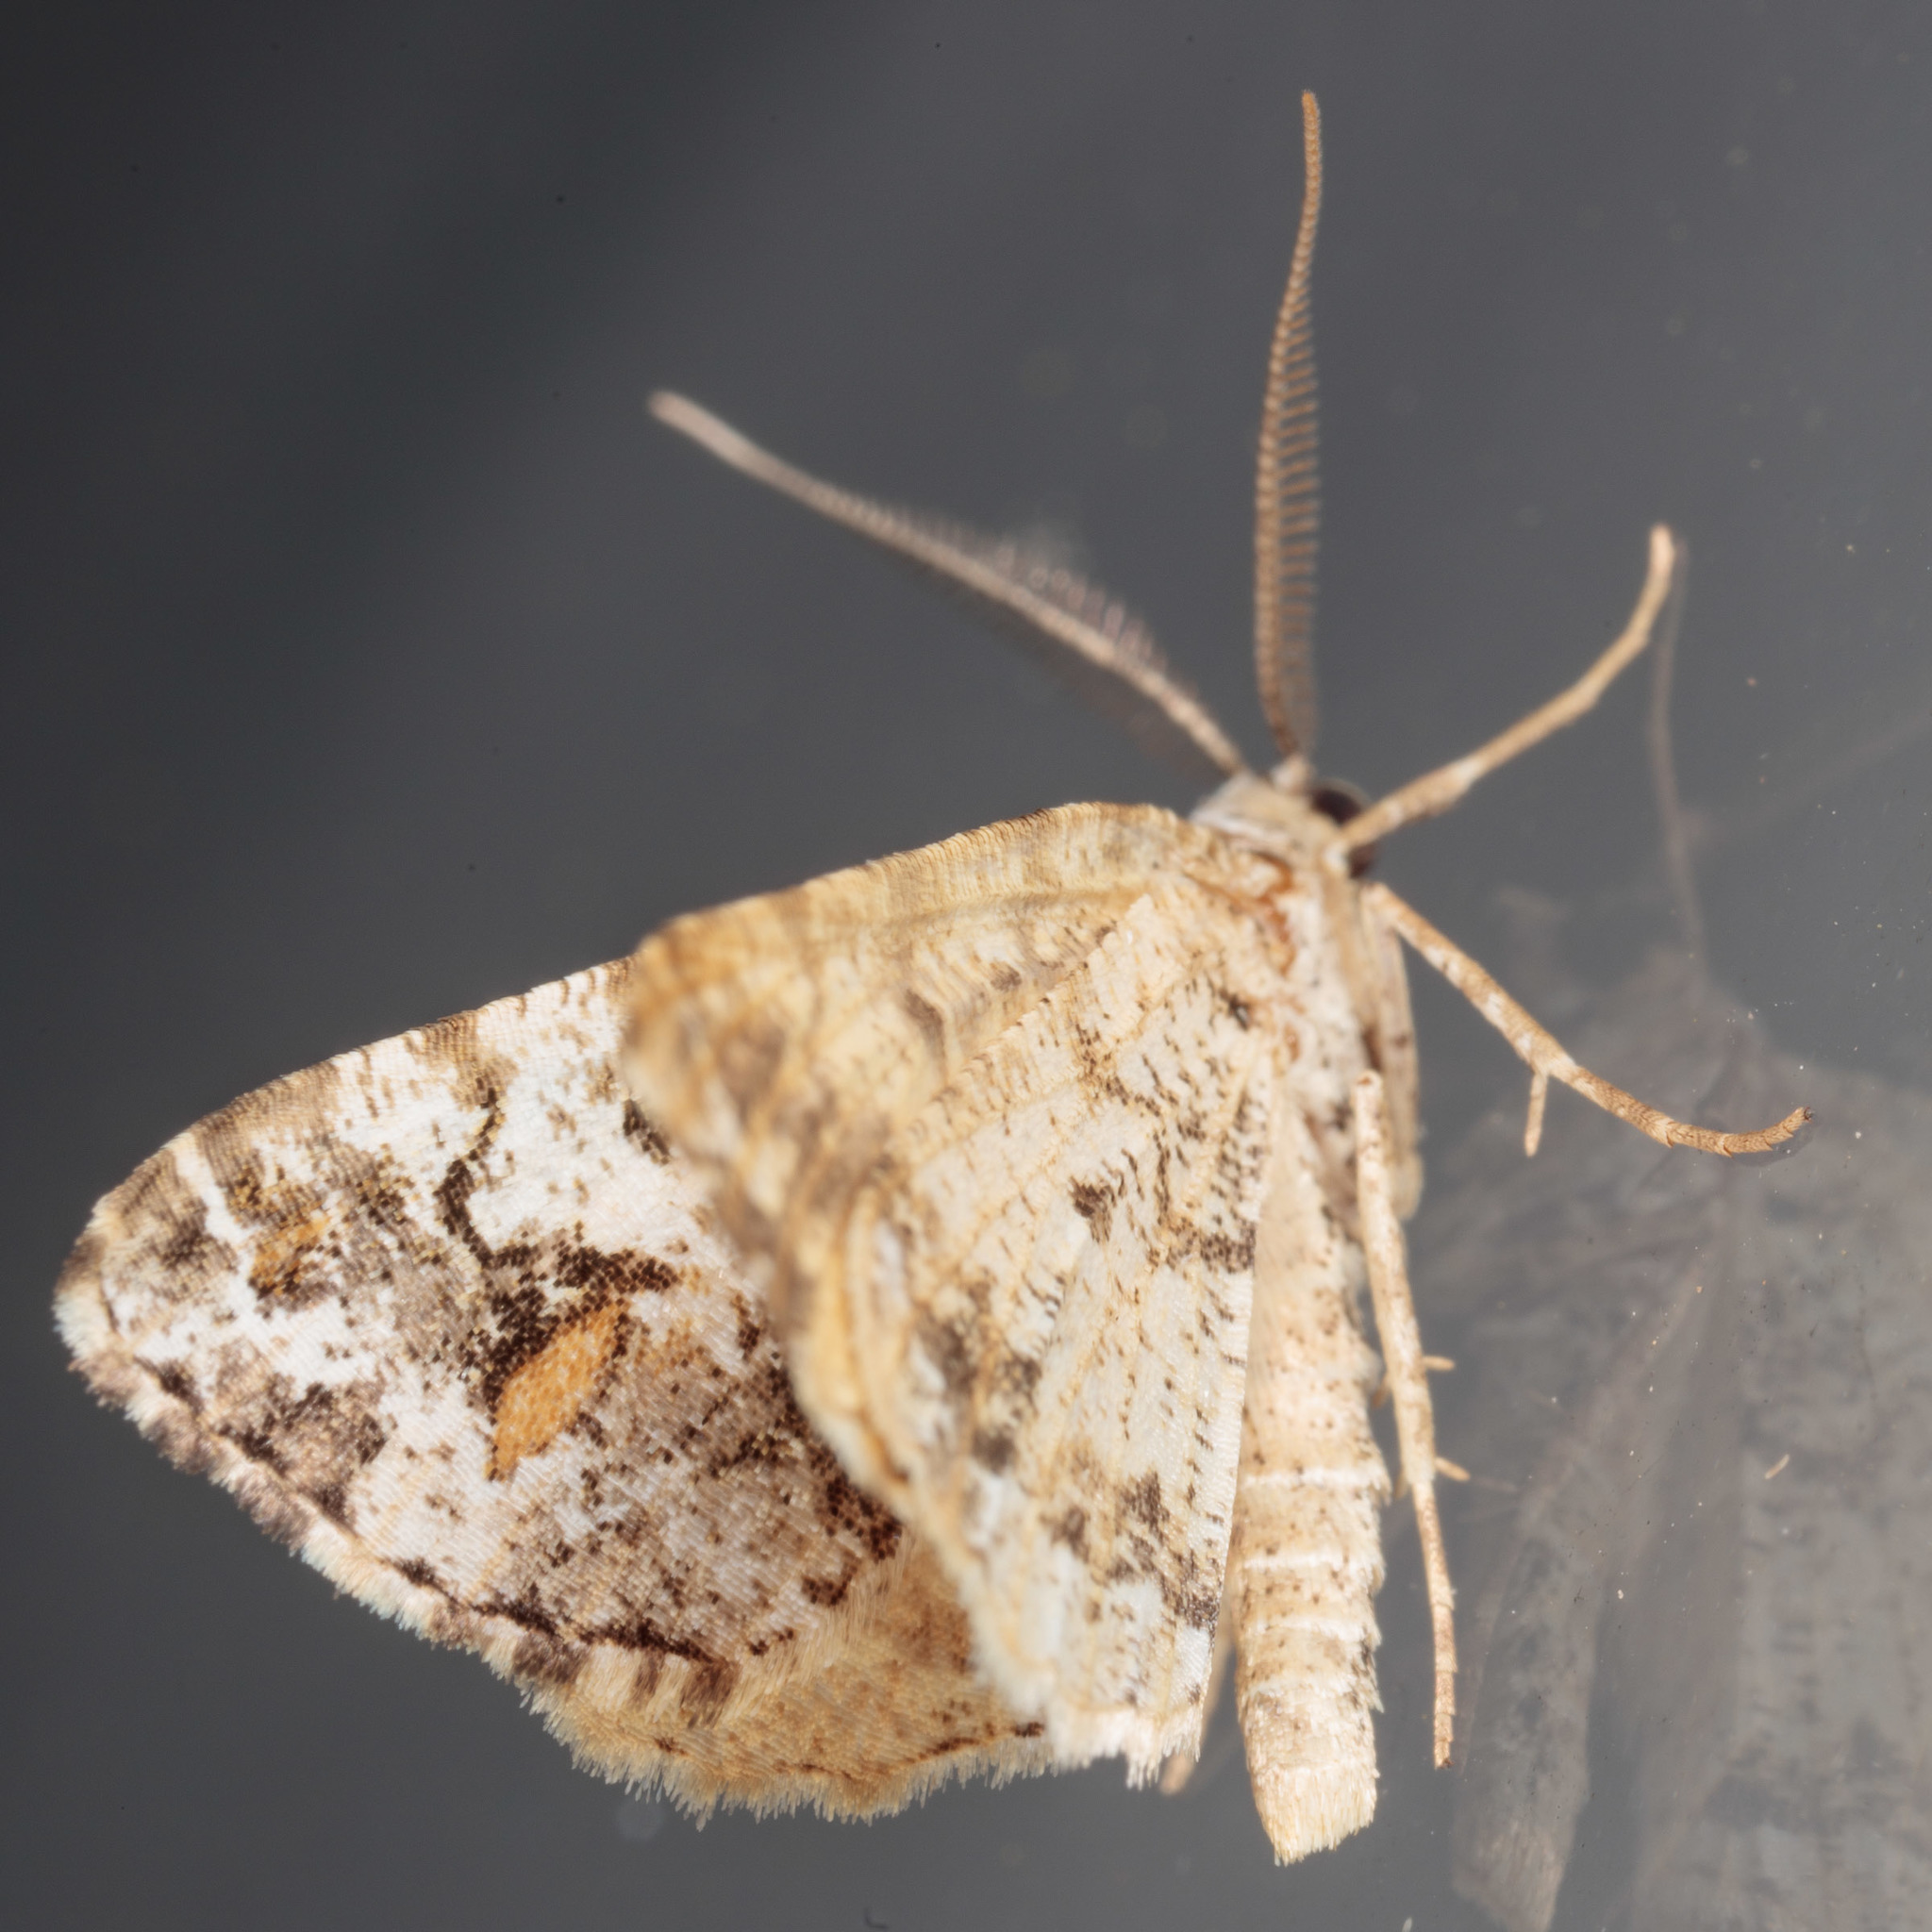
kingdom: Animalia
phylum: Arthropoda
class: Insecta
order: Lepidoptera
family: Geometridae
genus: Macaria
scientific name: Macaria graphidaria
